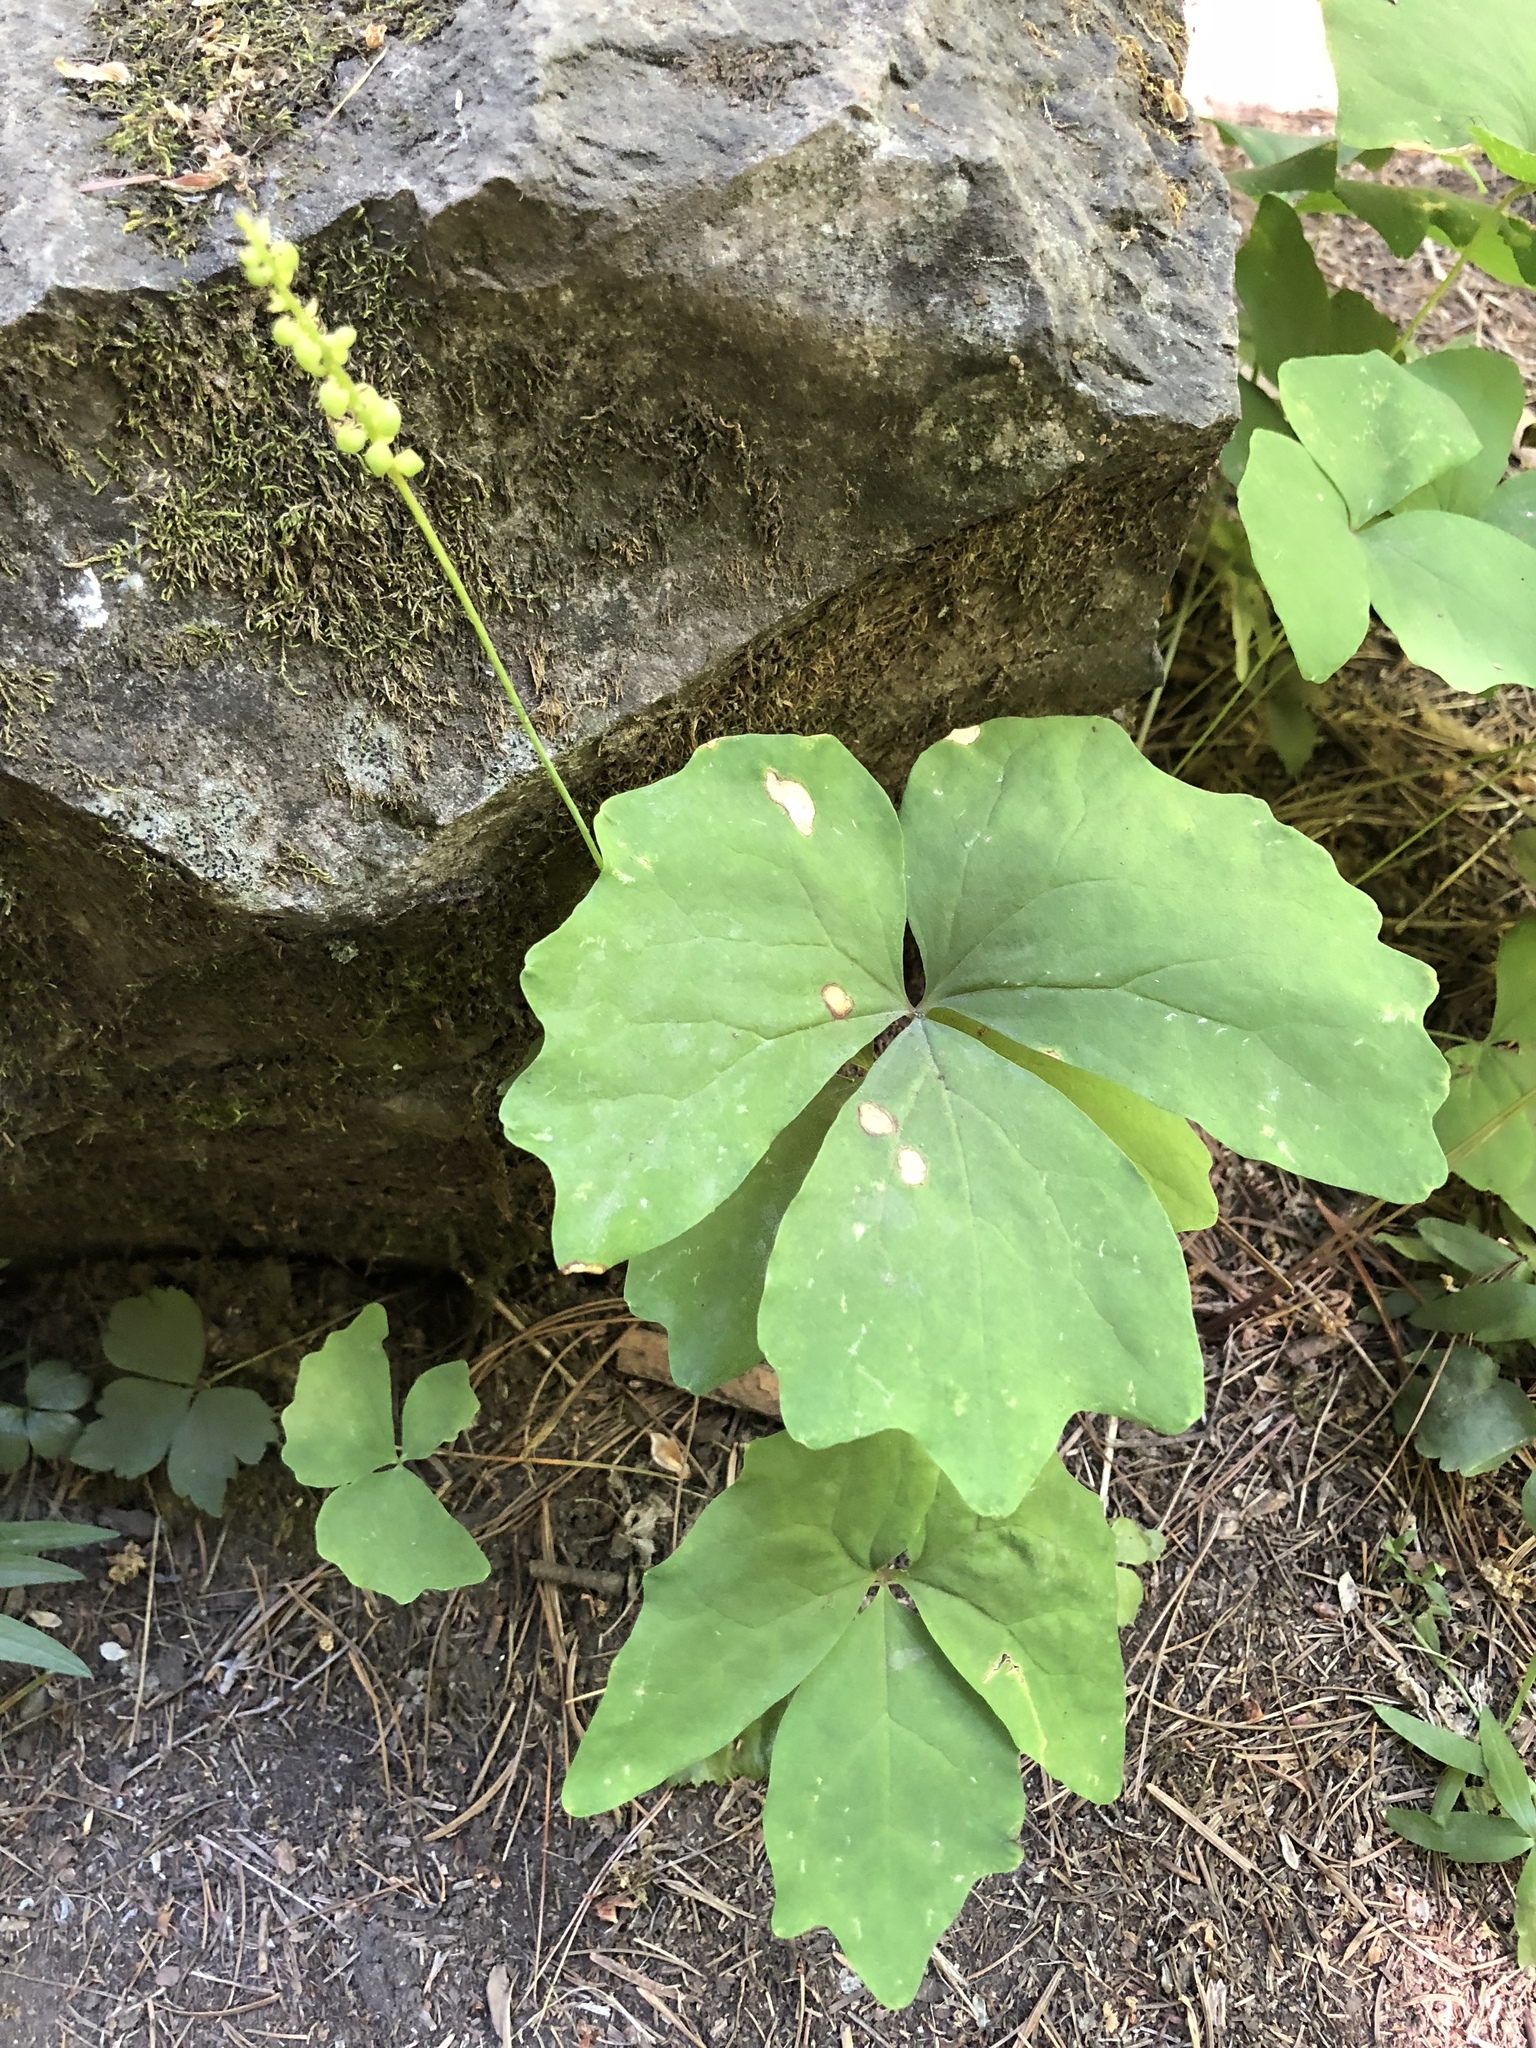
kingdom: Plantae
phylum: Tracheophyta
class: Magnoliopsida
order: Ranunculales
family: Berberidaceae
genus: Achlys
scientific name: Achlys triphylla
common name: Vanilla-leaf
